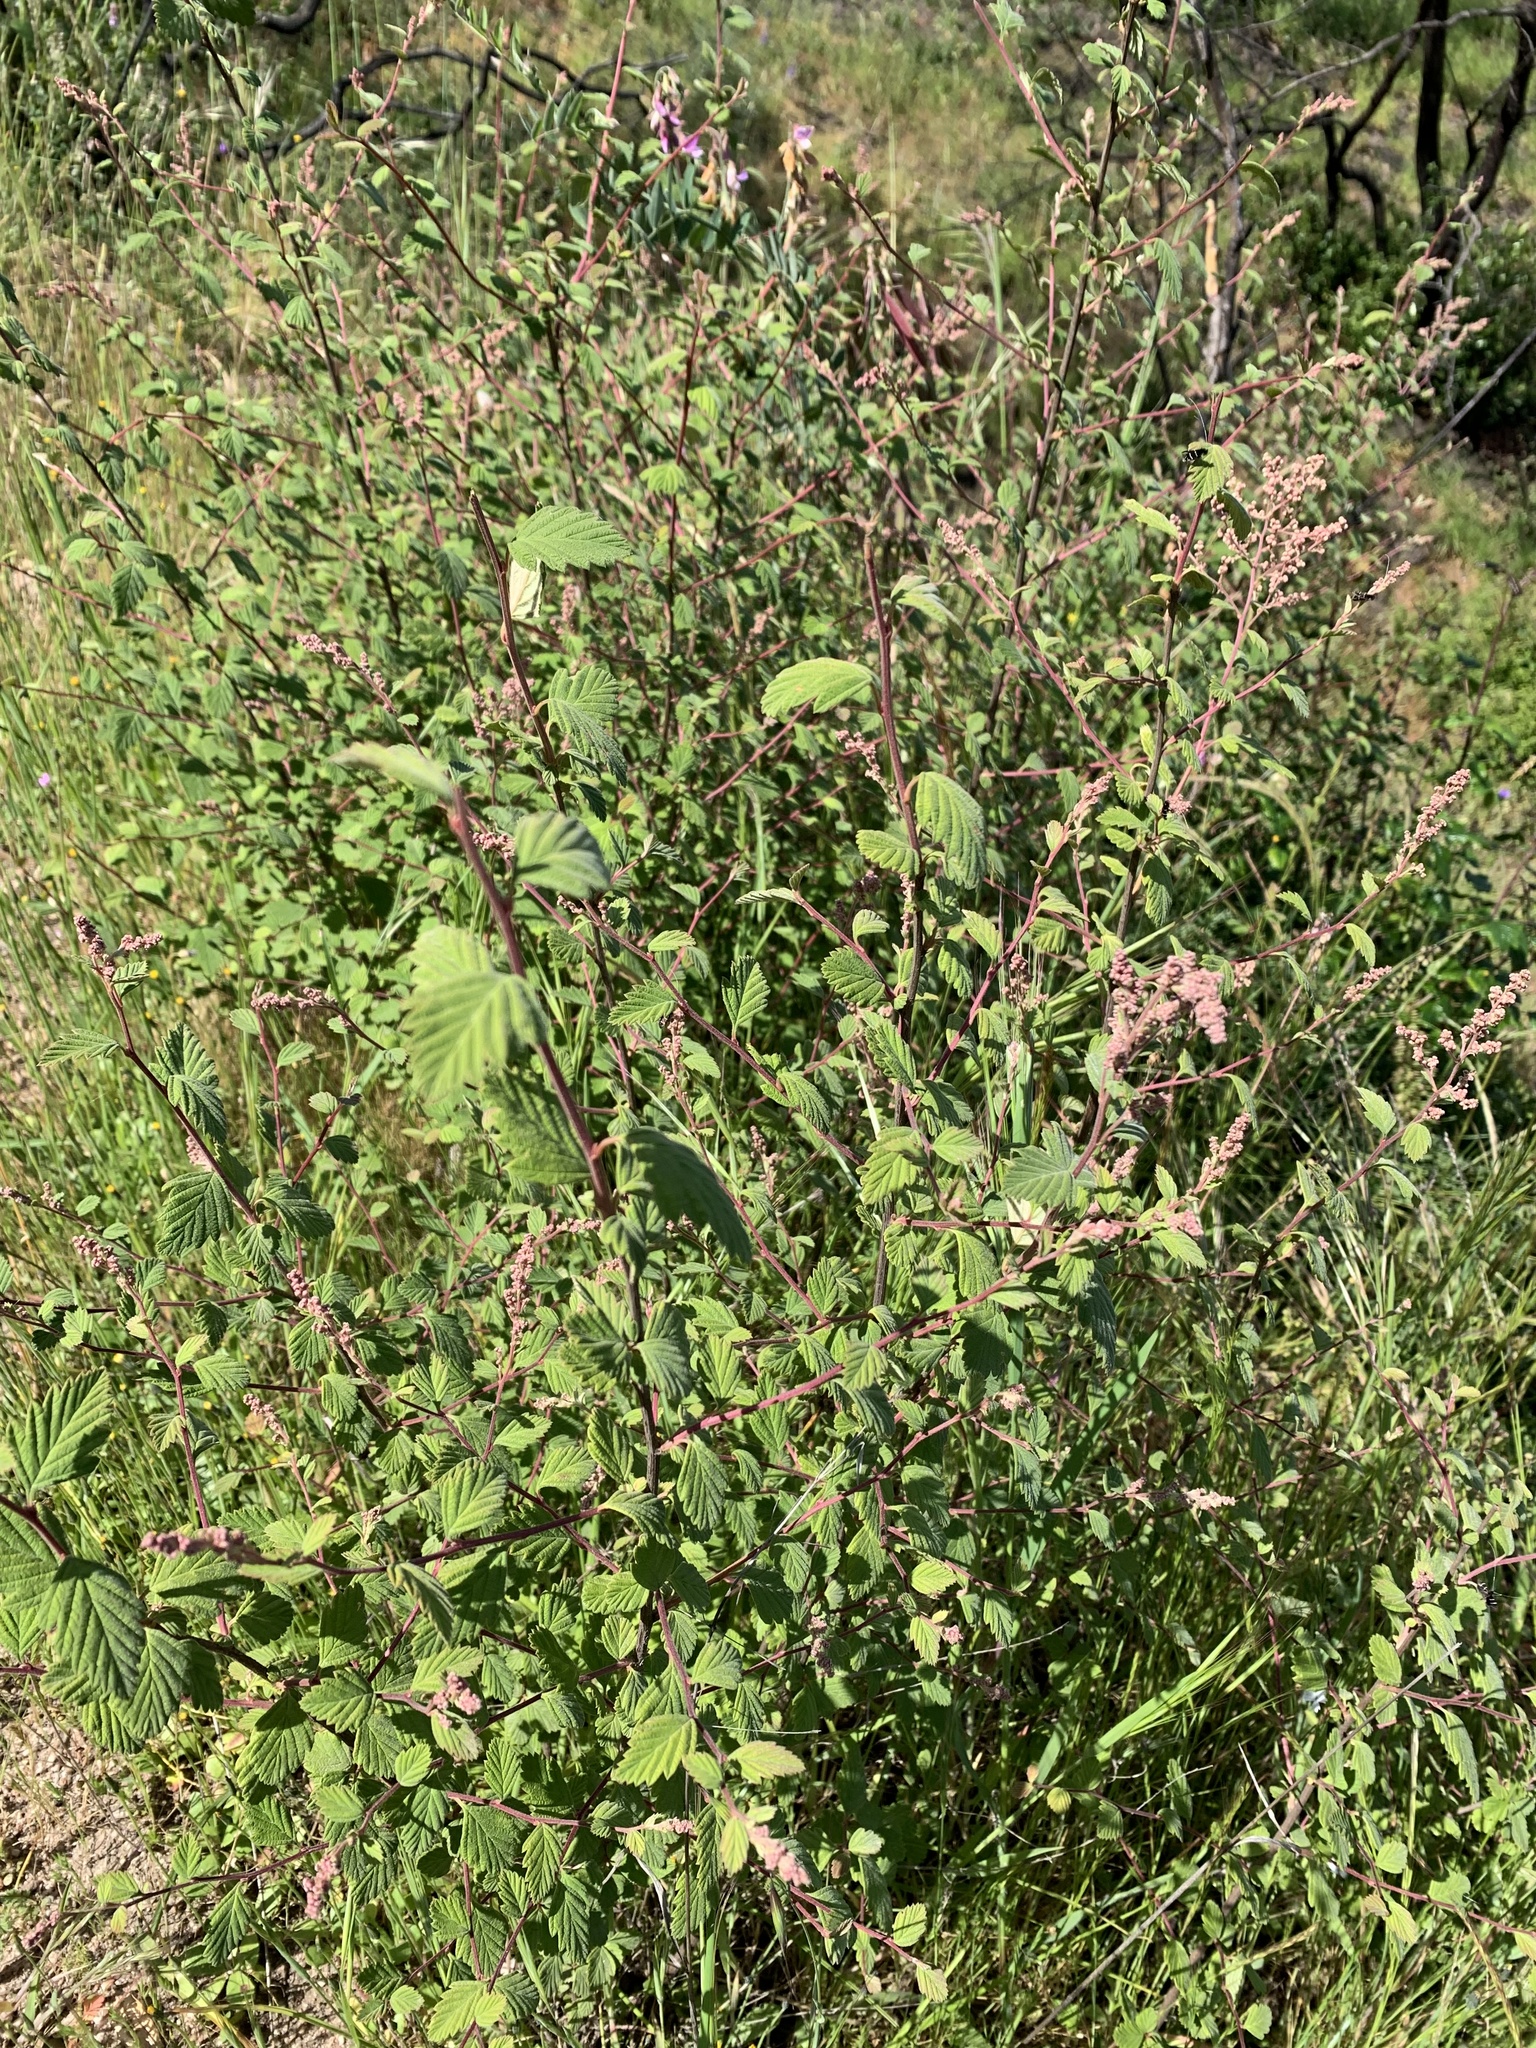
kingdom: Plantae
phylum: Tracheophyta
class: Magnoliopsida
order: Rosales
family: Rosaceae
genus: Holodiscus
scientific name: Holodiscus discolor
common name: Oceanspray
